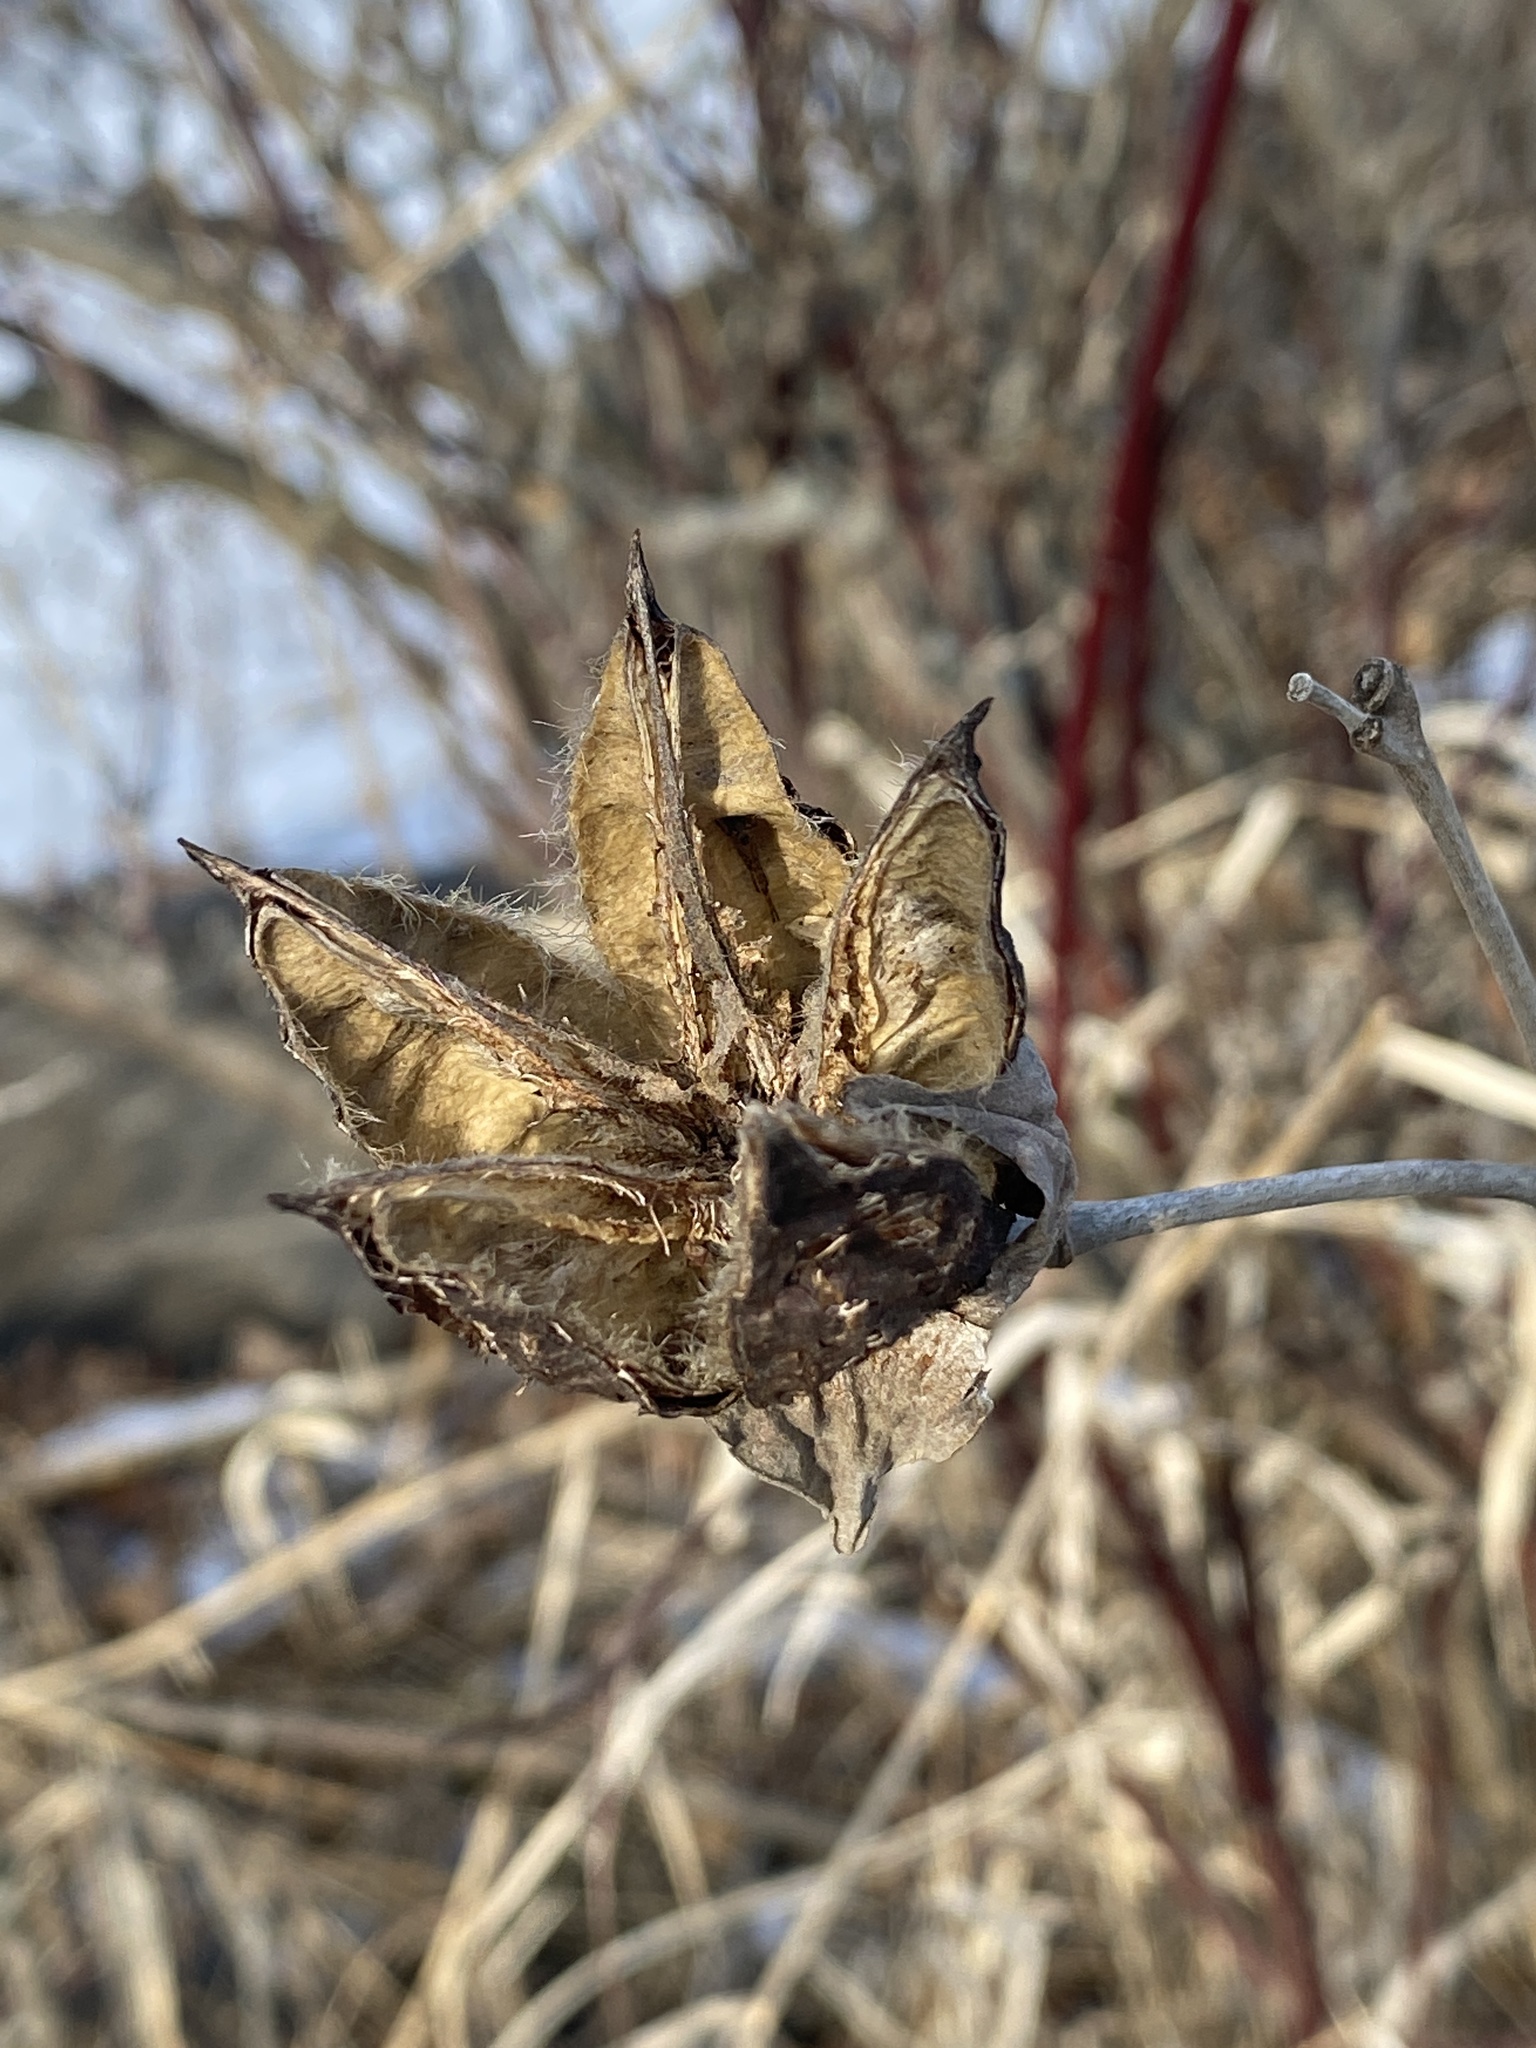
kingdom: Plantae
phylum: Tracheophyta
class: Magnoliopsida
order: Malvales
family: Malvaceae
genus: Hibiscus
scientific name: Hibiscus moscheutos
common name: Common rose-mallow
